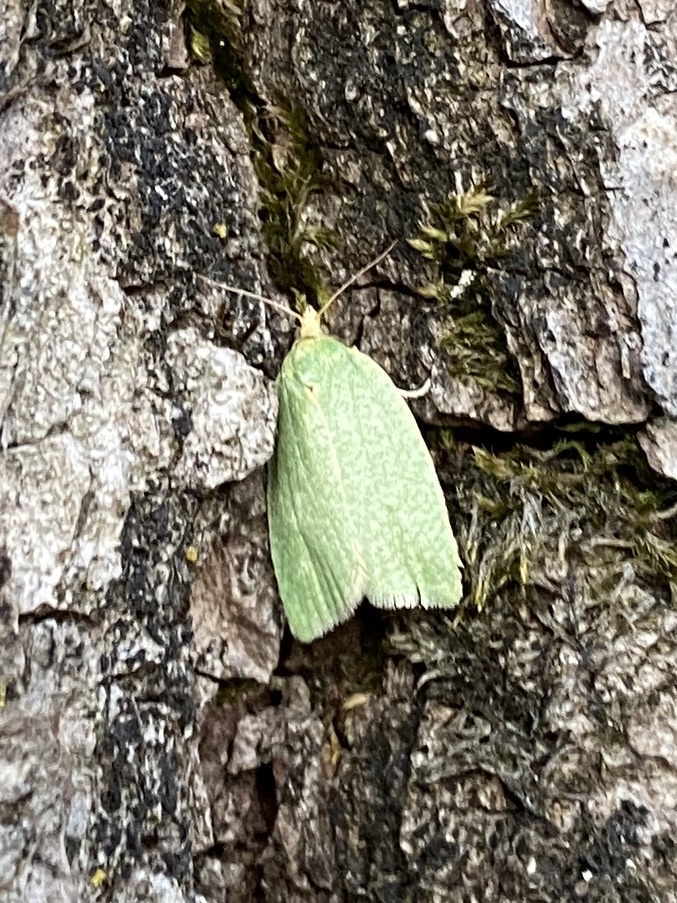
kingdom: Animalia
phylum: Arthropoda
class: Insecta
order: Lepidoptera
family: Tortricidae
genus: Tortrix
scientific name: Tortrix viridana
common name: Green oak tortrix
